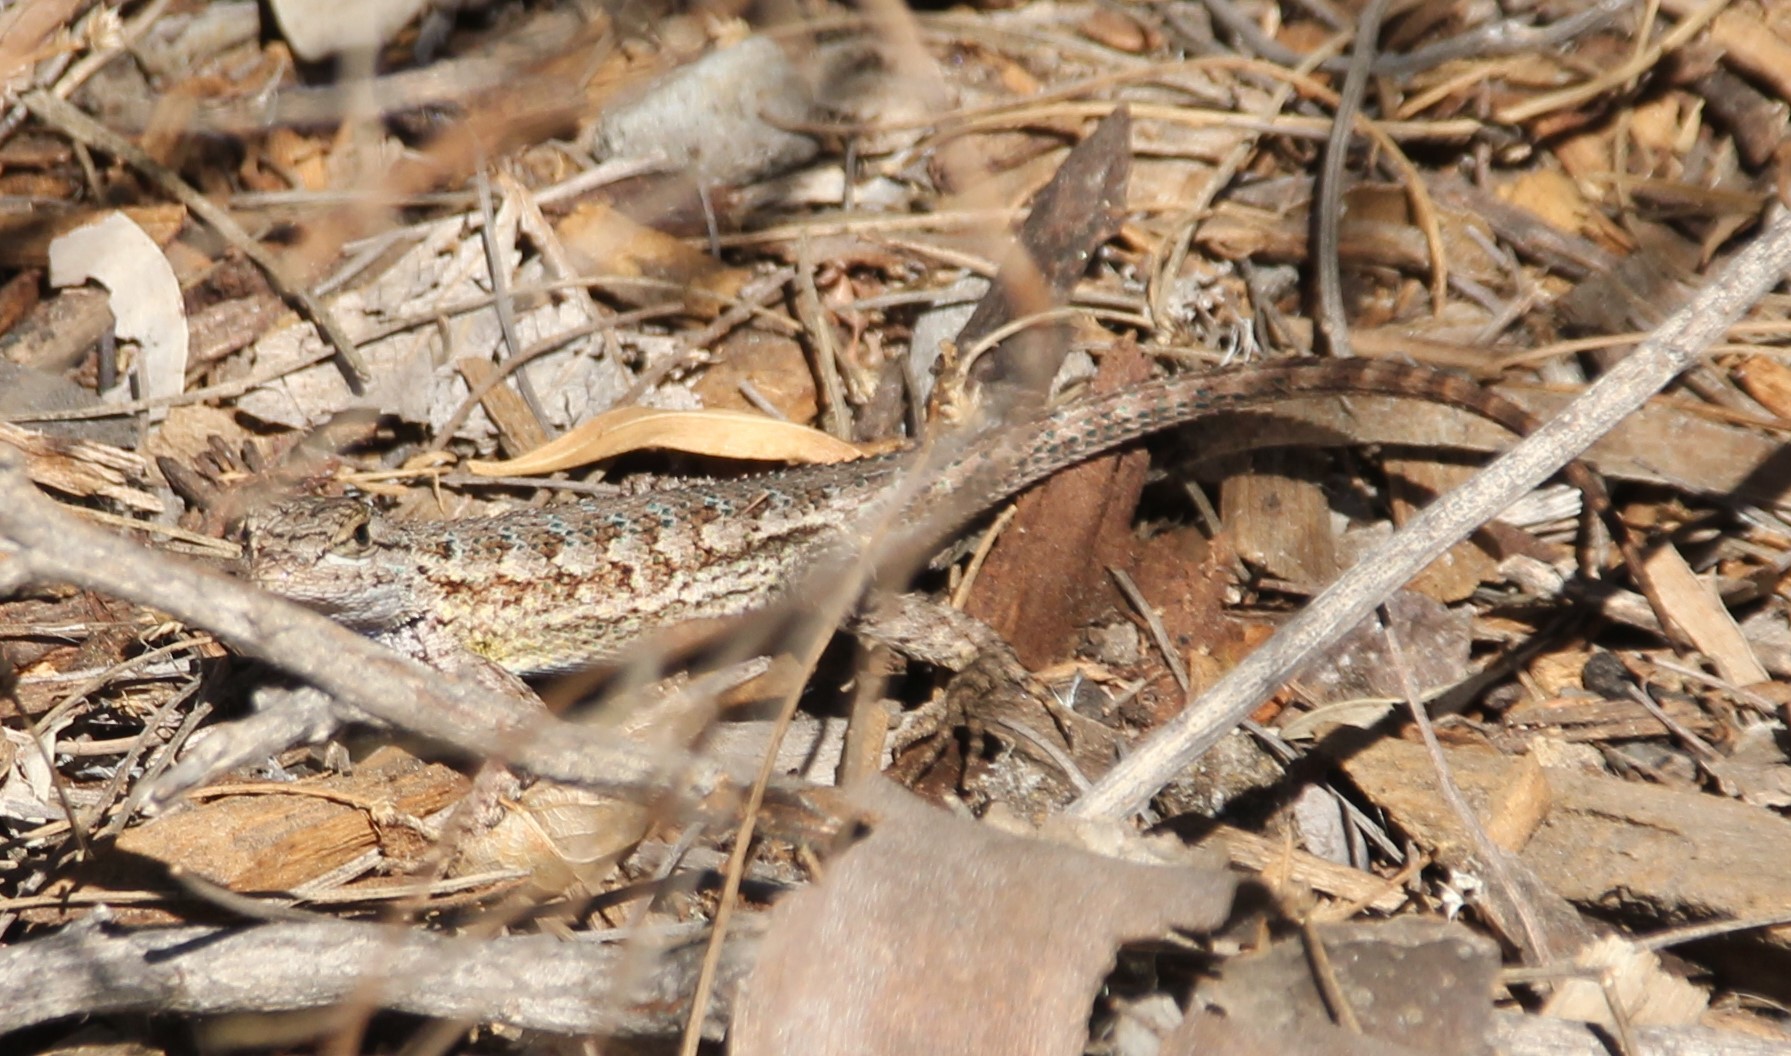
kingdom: Animalia
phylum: Chordata
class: Squamata
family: Phrynosomatidae
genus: Sceloporus
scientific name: Sceloporus occidentalis
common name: Western fence lizard
